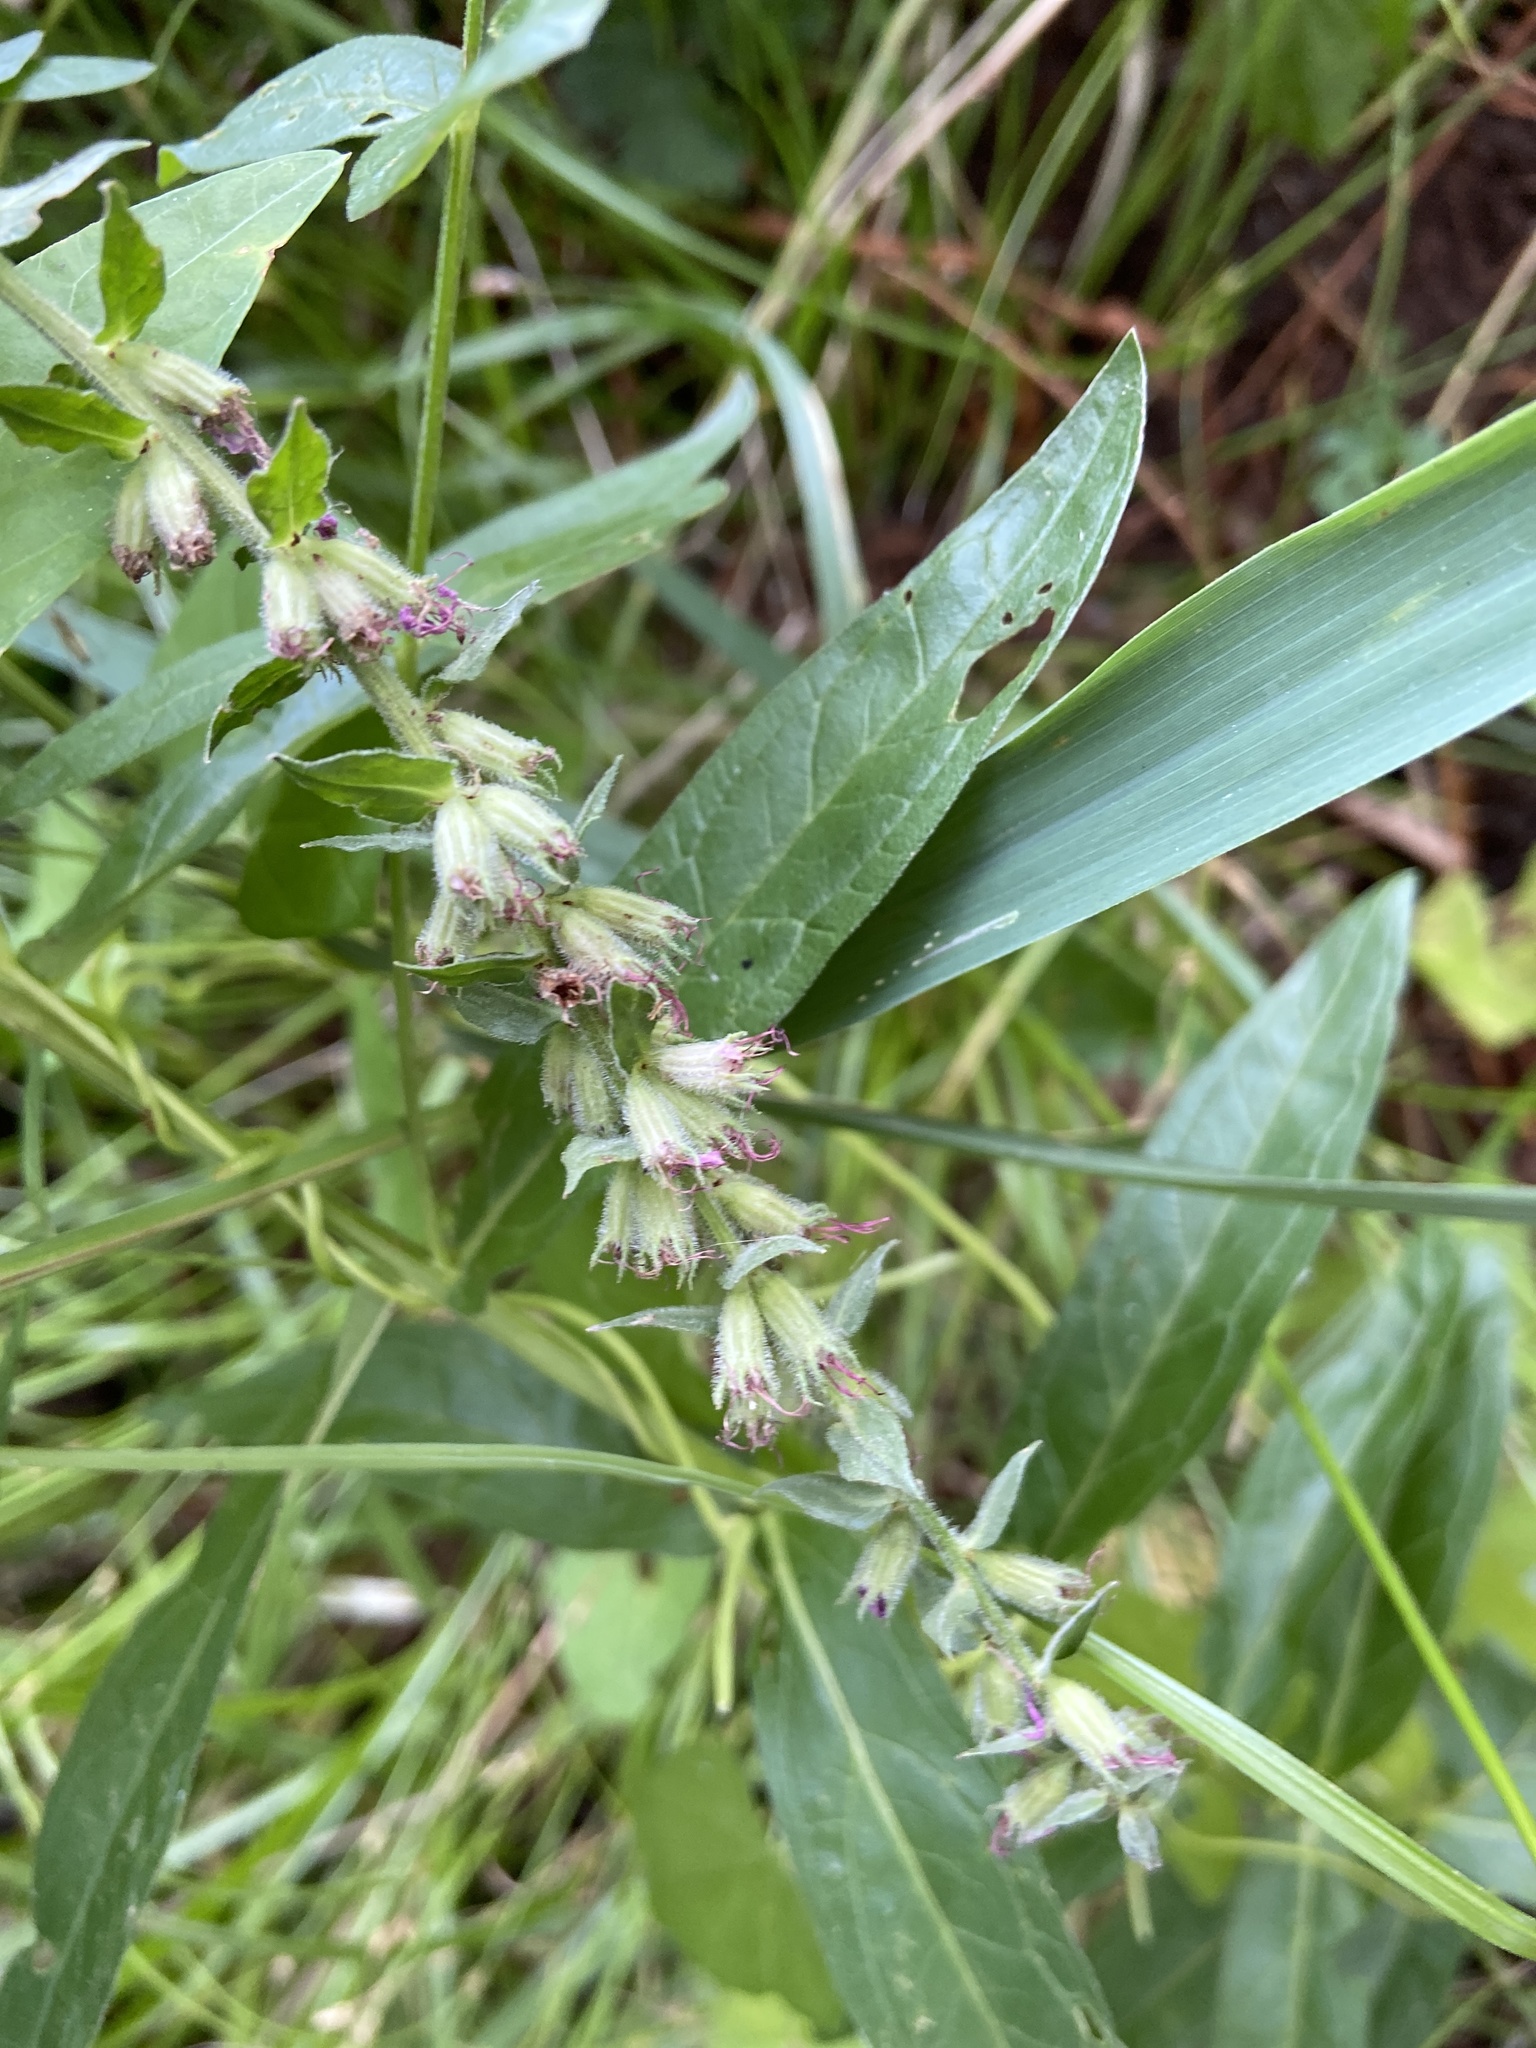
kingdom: Plantae
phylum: Tracheophyta
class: Magnoliopsida
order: Lamiales
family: Lamiaceae
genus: Stachys
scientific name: Stachys palustris
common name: Marsh woundwort
